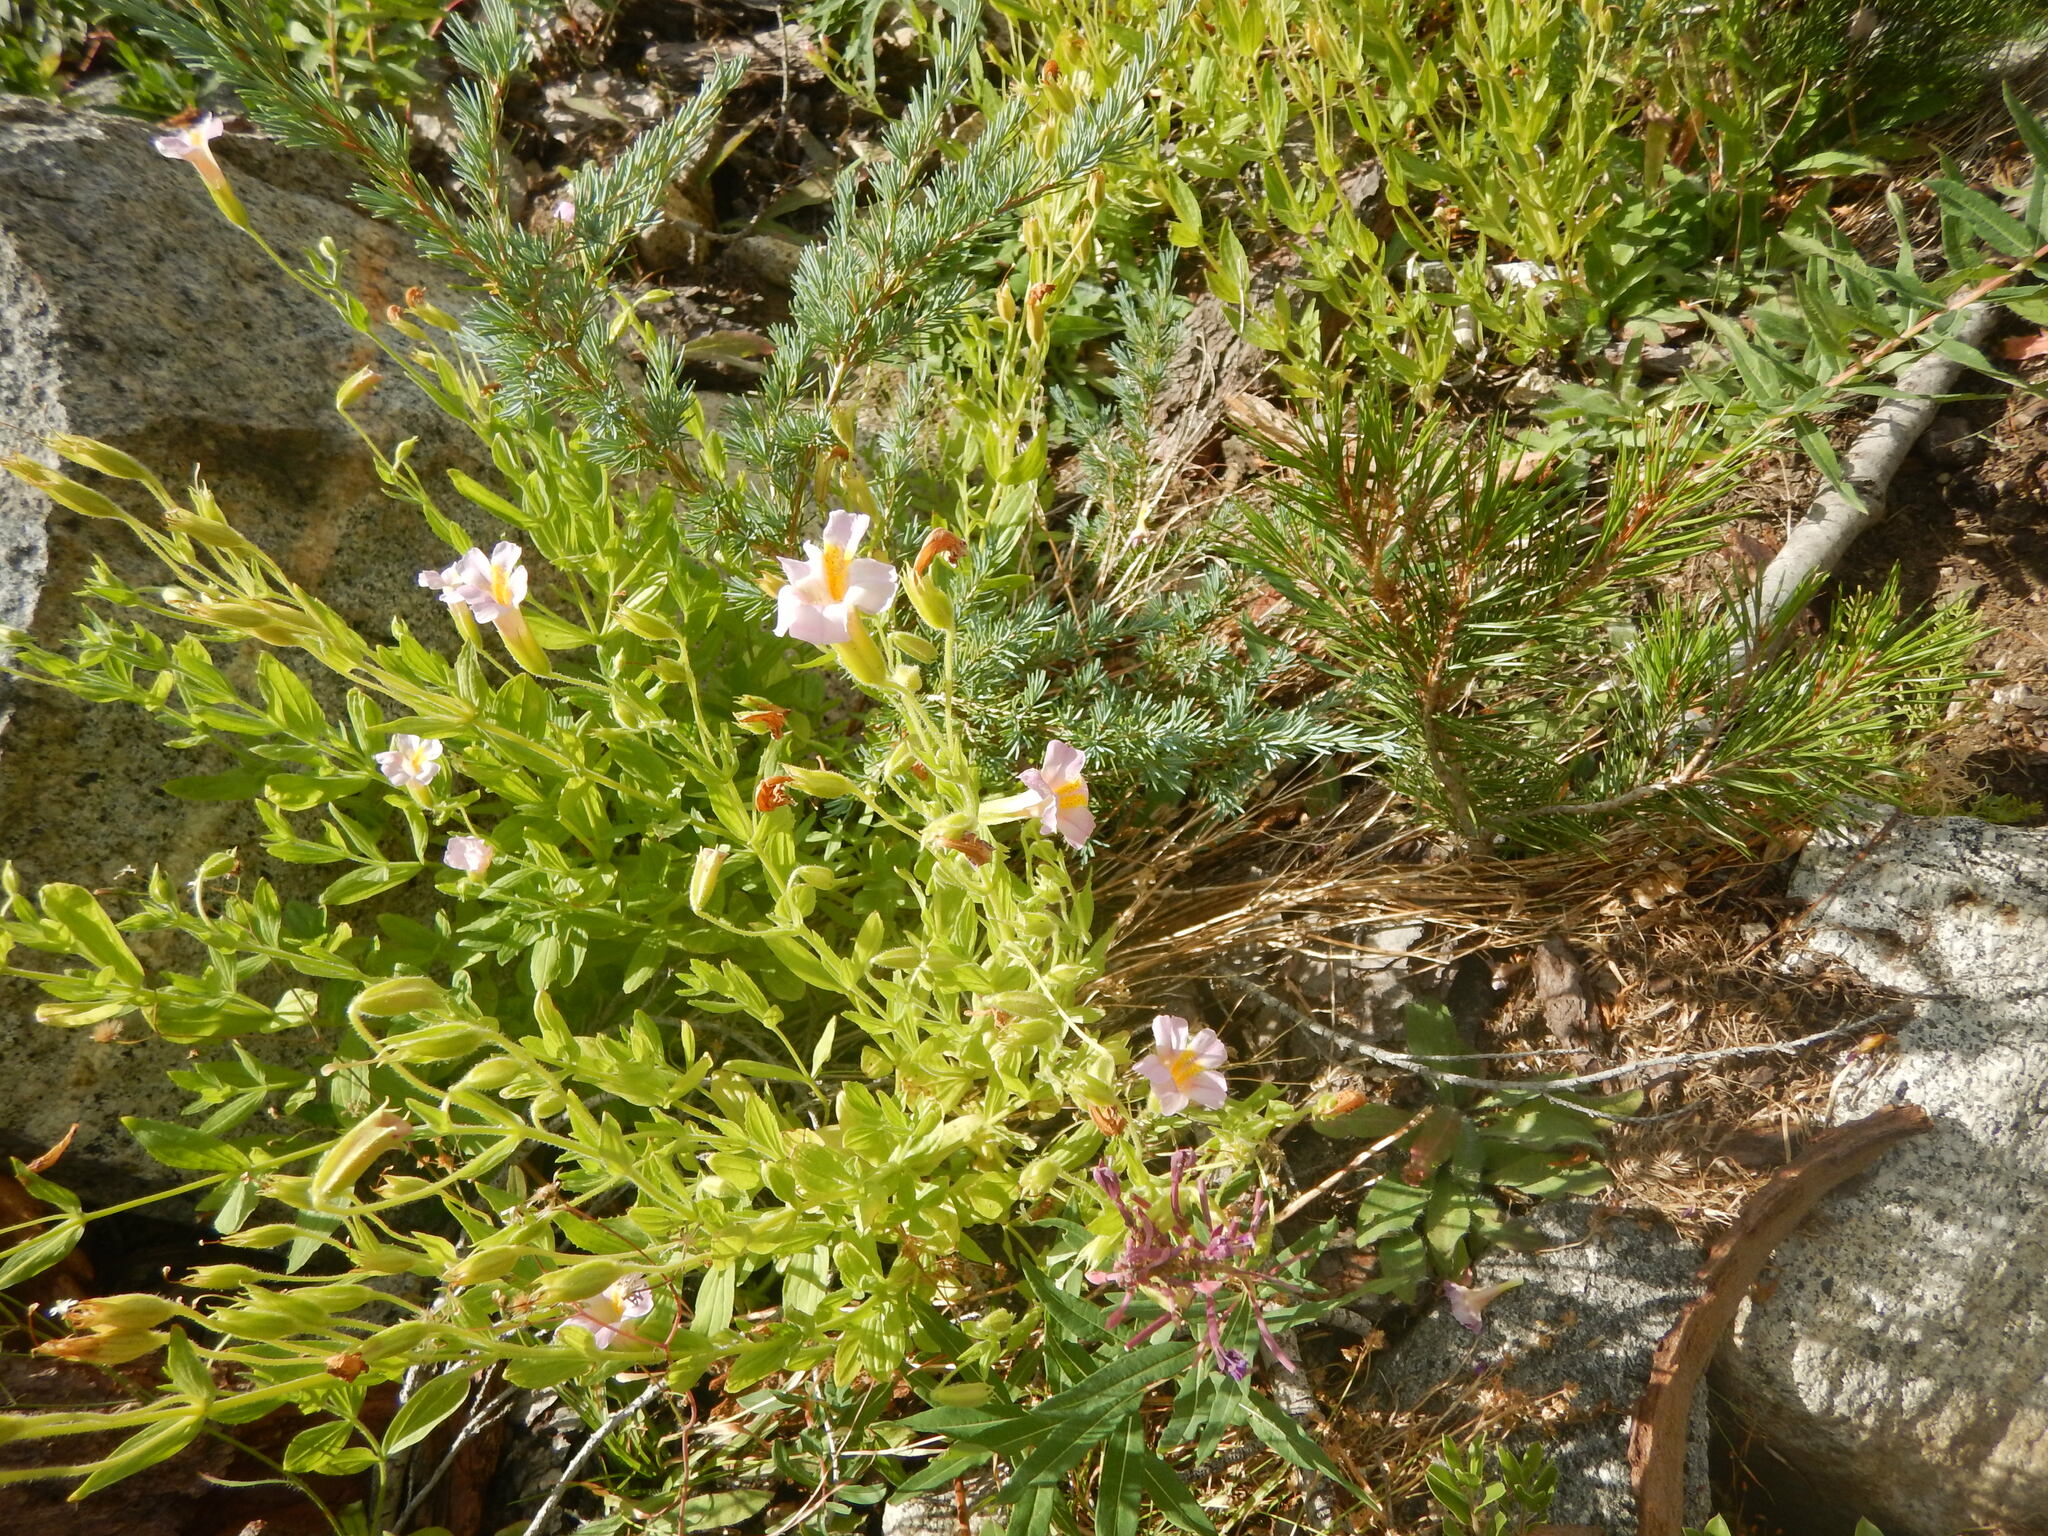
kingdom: Plantae
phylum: Tracheophyta
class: Magnoliopsida
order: Lamiales
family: Phrymaceae
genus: Erythranthe
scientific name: Erythranthe erubescens
